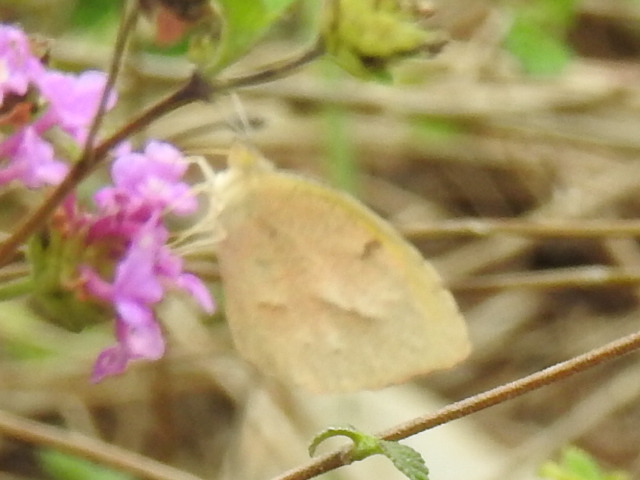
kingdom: Animalia
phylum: Arthropoda
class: Insecta
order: Lepidoptera
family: Pieridae
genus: Abaeis
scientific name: Abaeis nicippe
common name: Sleepy orange
